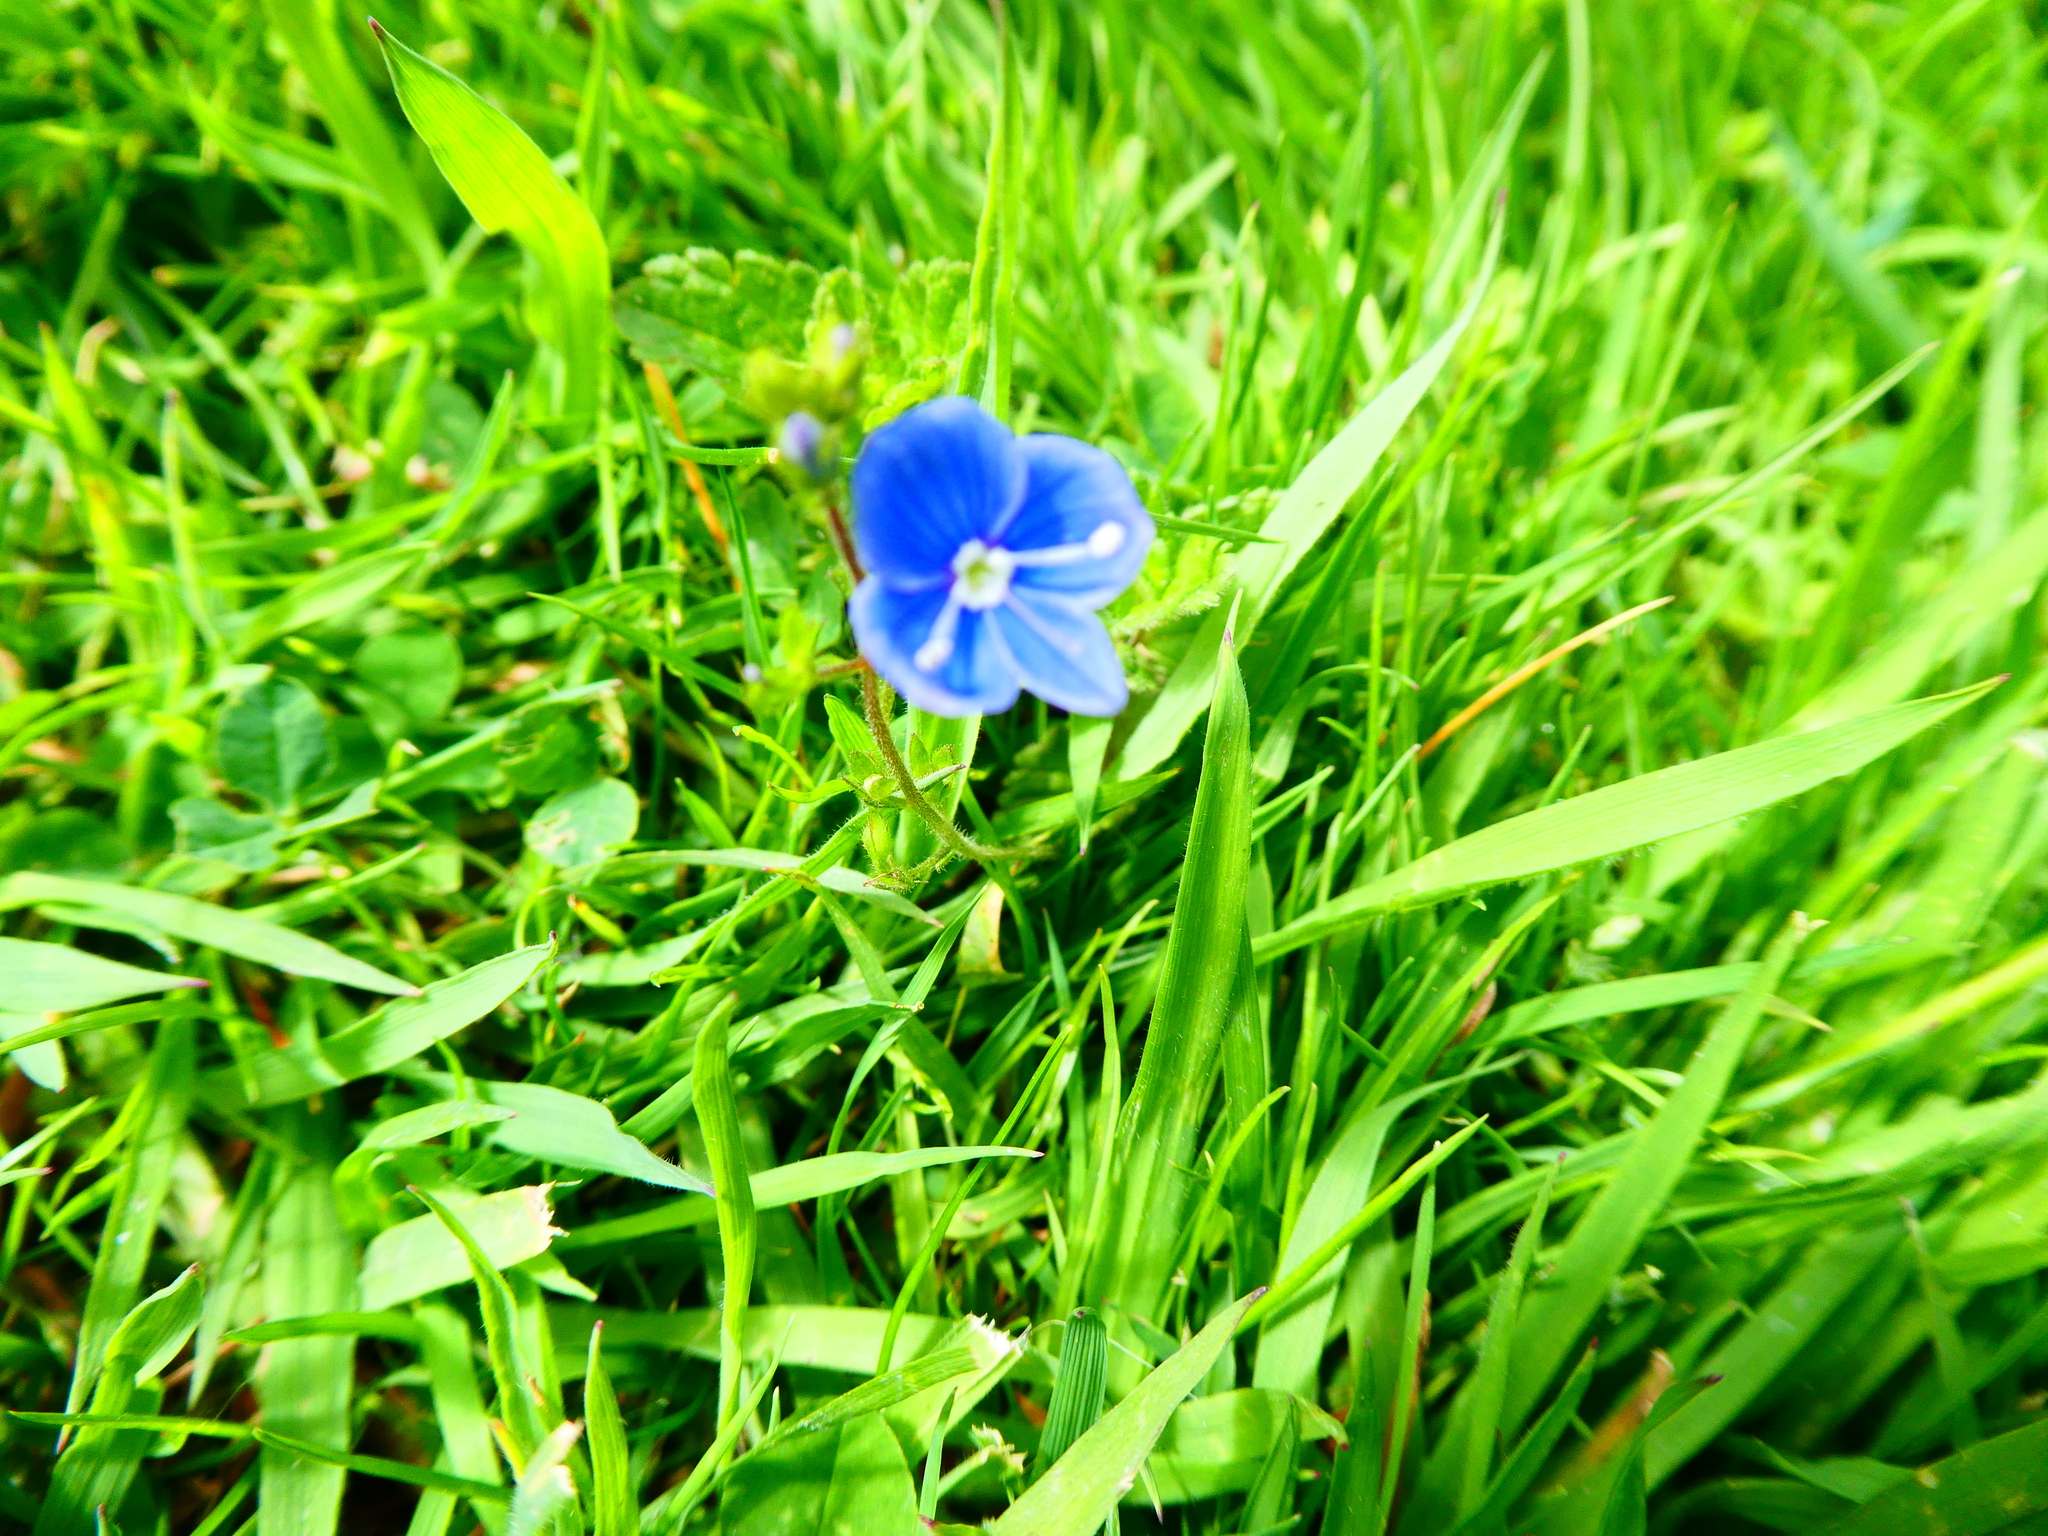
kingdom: Plantae
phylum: Tracheophyta
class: Magnoliopsida
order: Lamiales
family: Plantaginaceae
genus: Veronica
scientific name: Veronica chamaedrys
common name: Germander speedwell
